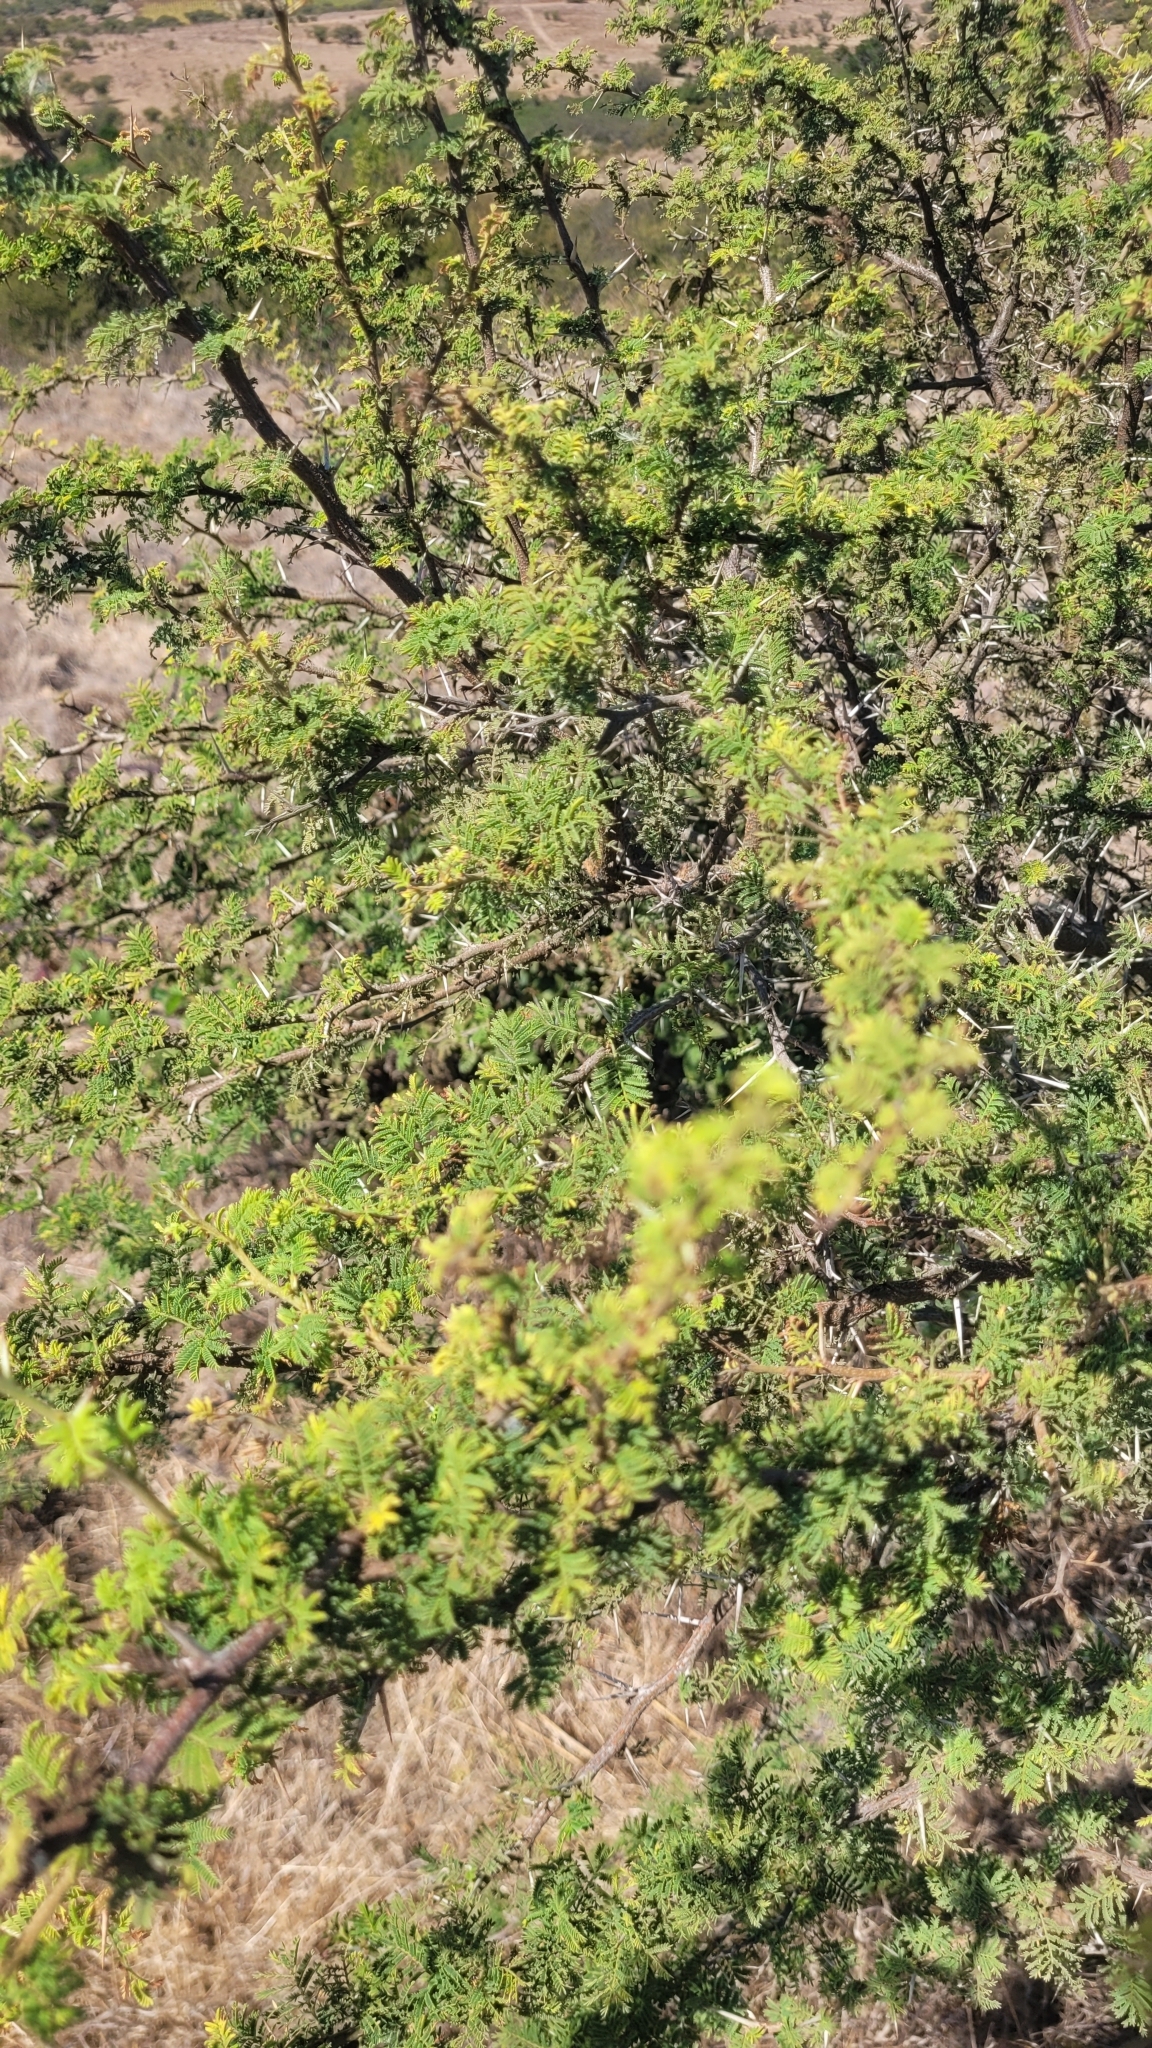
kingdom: Plantae
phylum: Tracheophyta
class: Magnoliopsida
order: Fabales
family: Fabaceae
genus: Vachellia
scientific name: Vachellia caven
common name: Roman cassie
